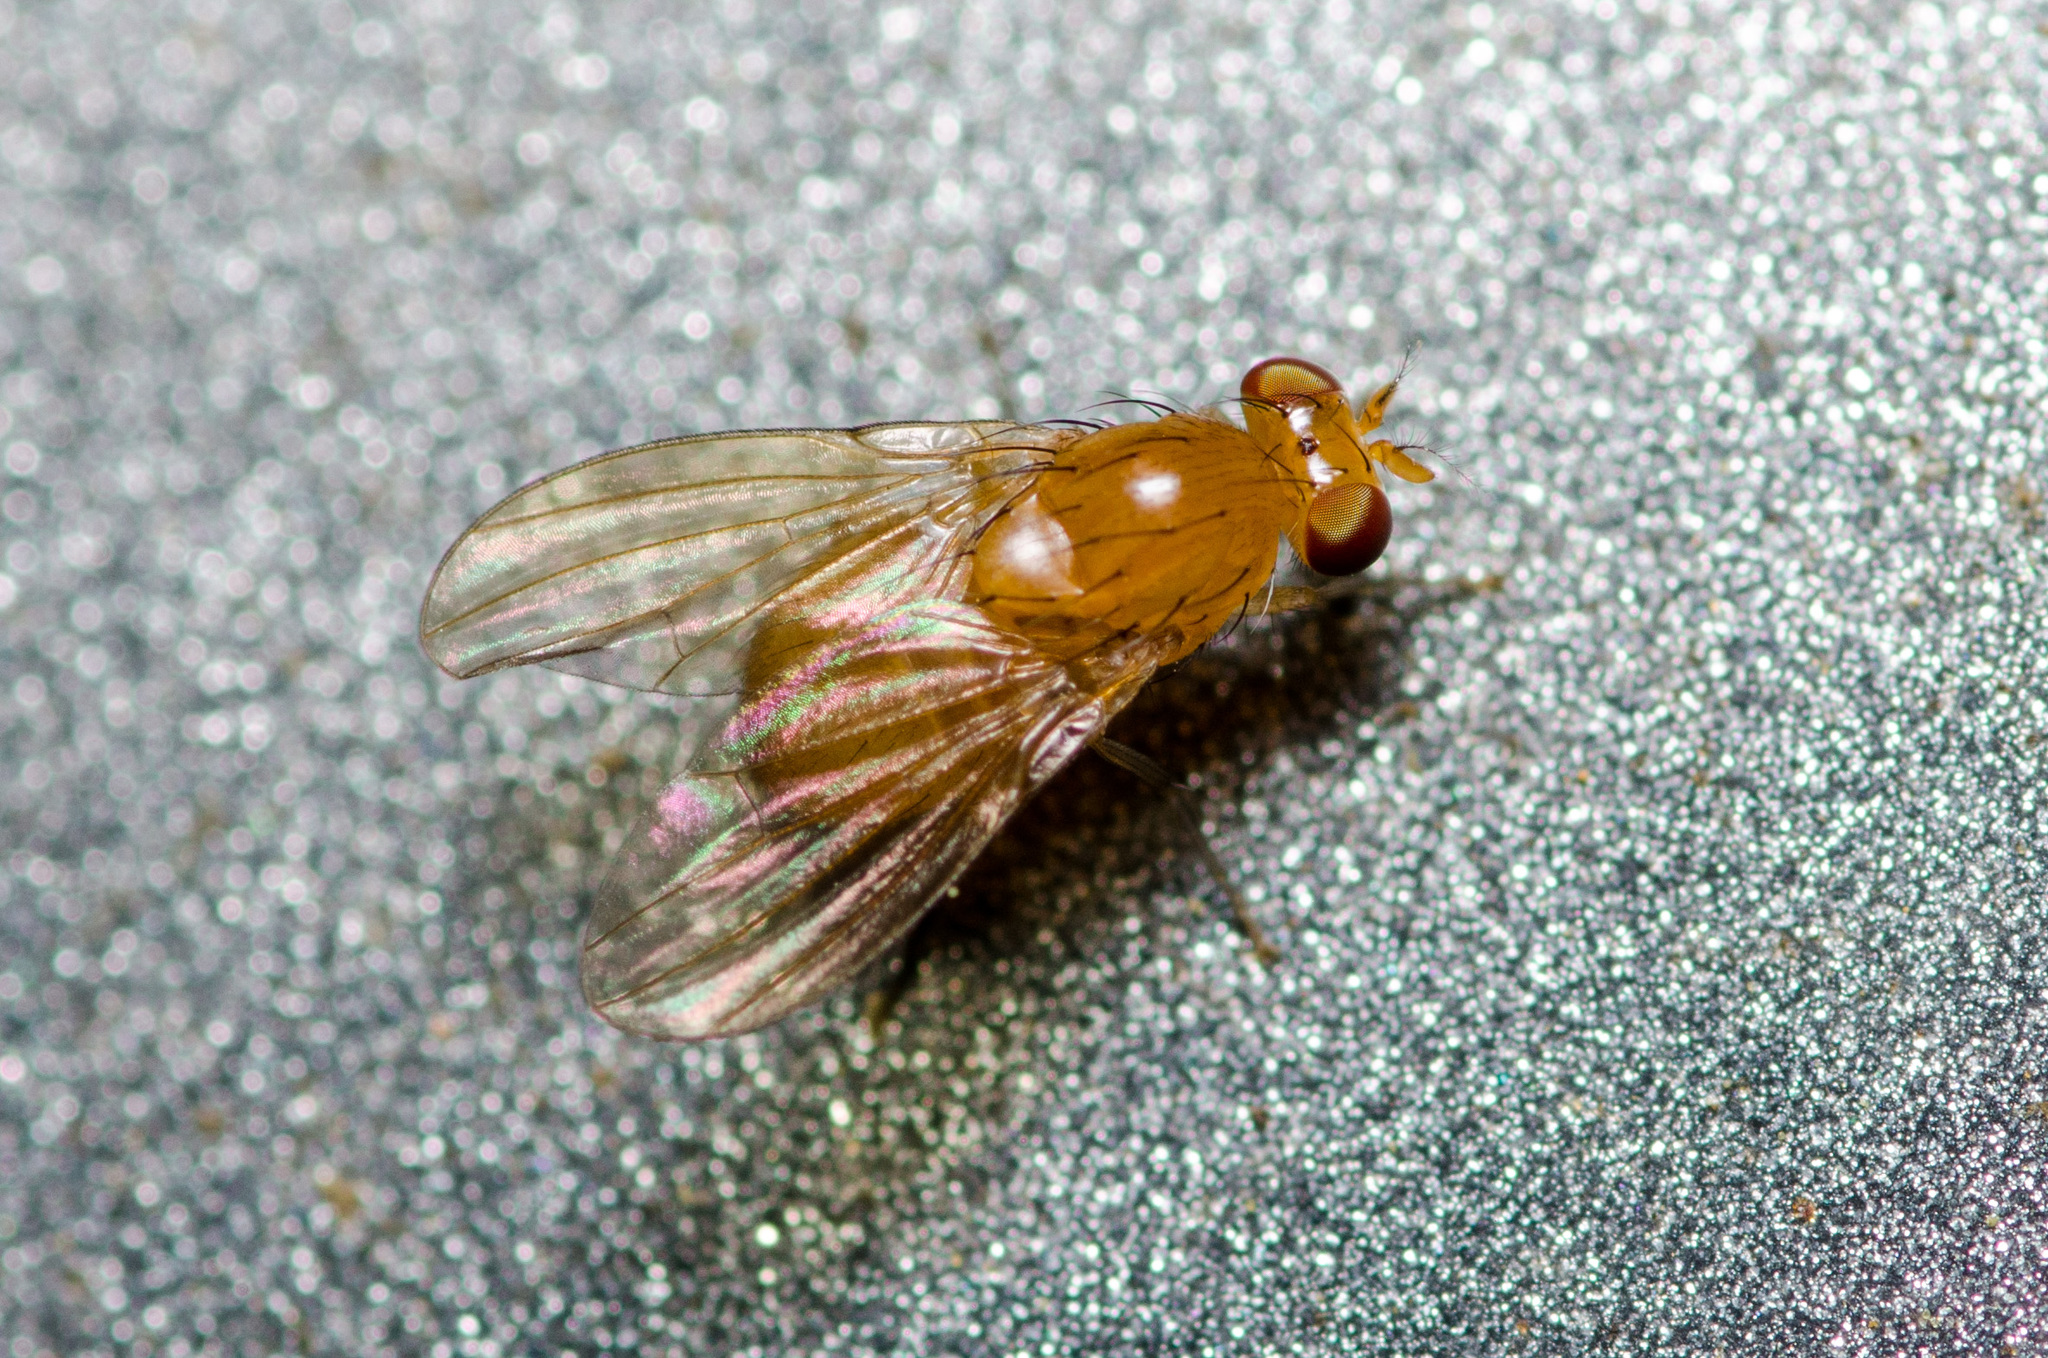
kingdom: Animalia
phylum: Arthropoda
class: Insecta
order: Diptera
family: Lauxaniidae
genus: Neogriphoneura
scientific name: Neogriphoneura sordida
